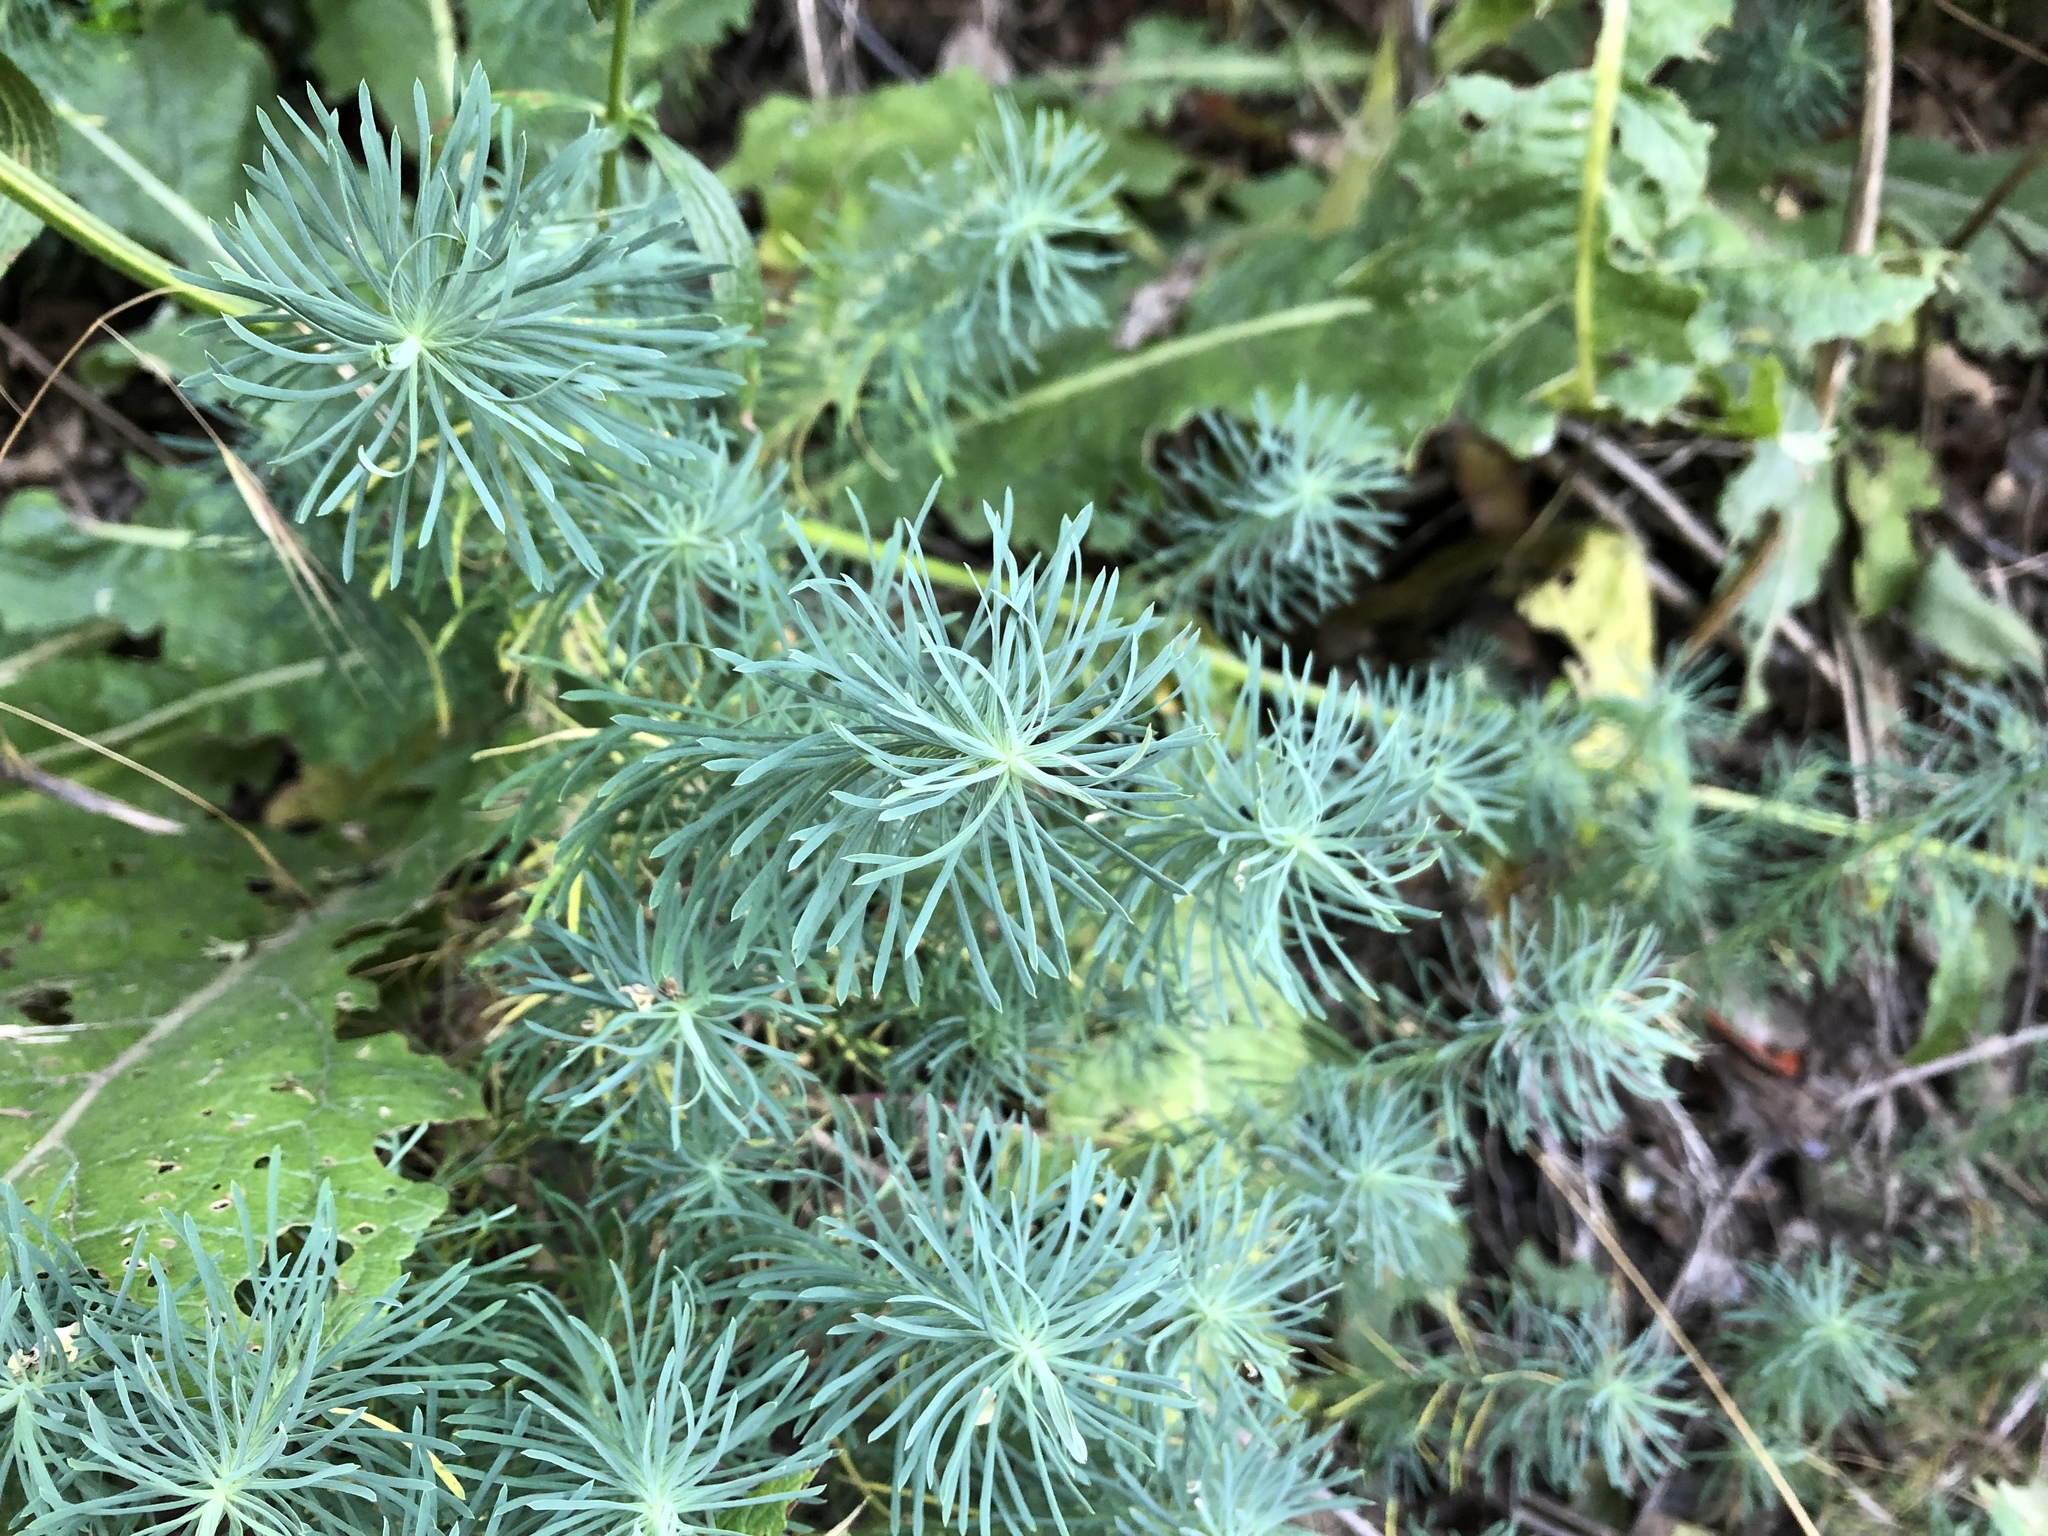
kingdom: Plantae
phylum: Tracheophyta
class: Magnoliopsida
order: Malpighiales
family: Euphorbiaceae
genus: Euphorbia
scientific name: Euphorbia cyparissias
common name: Cypress spurge
